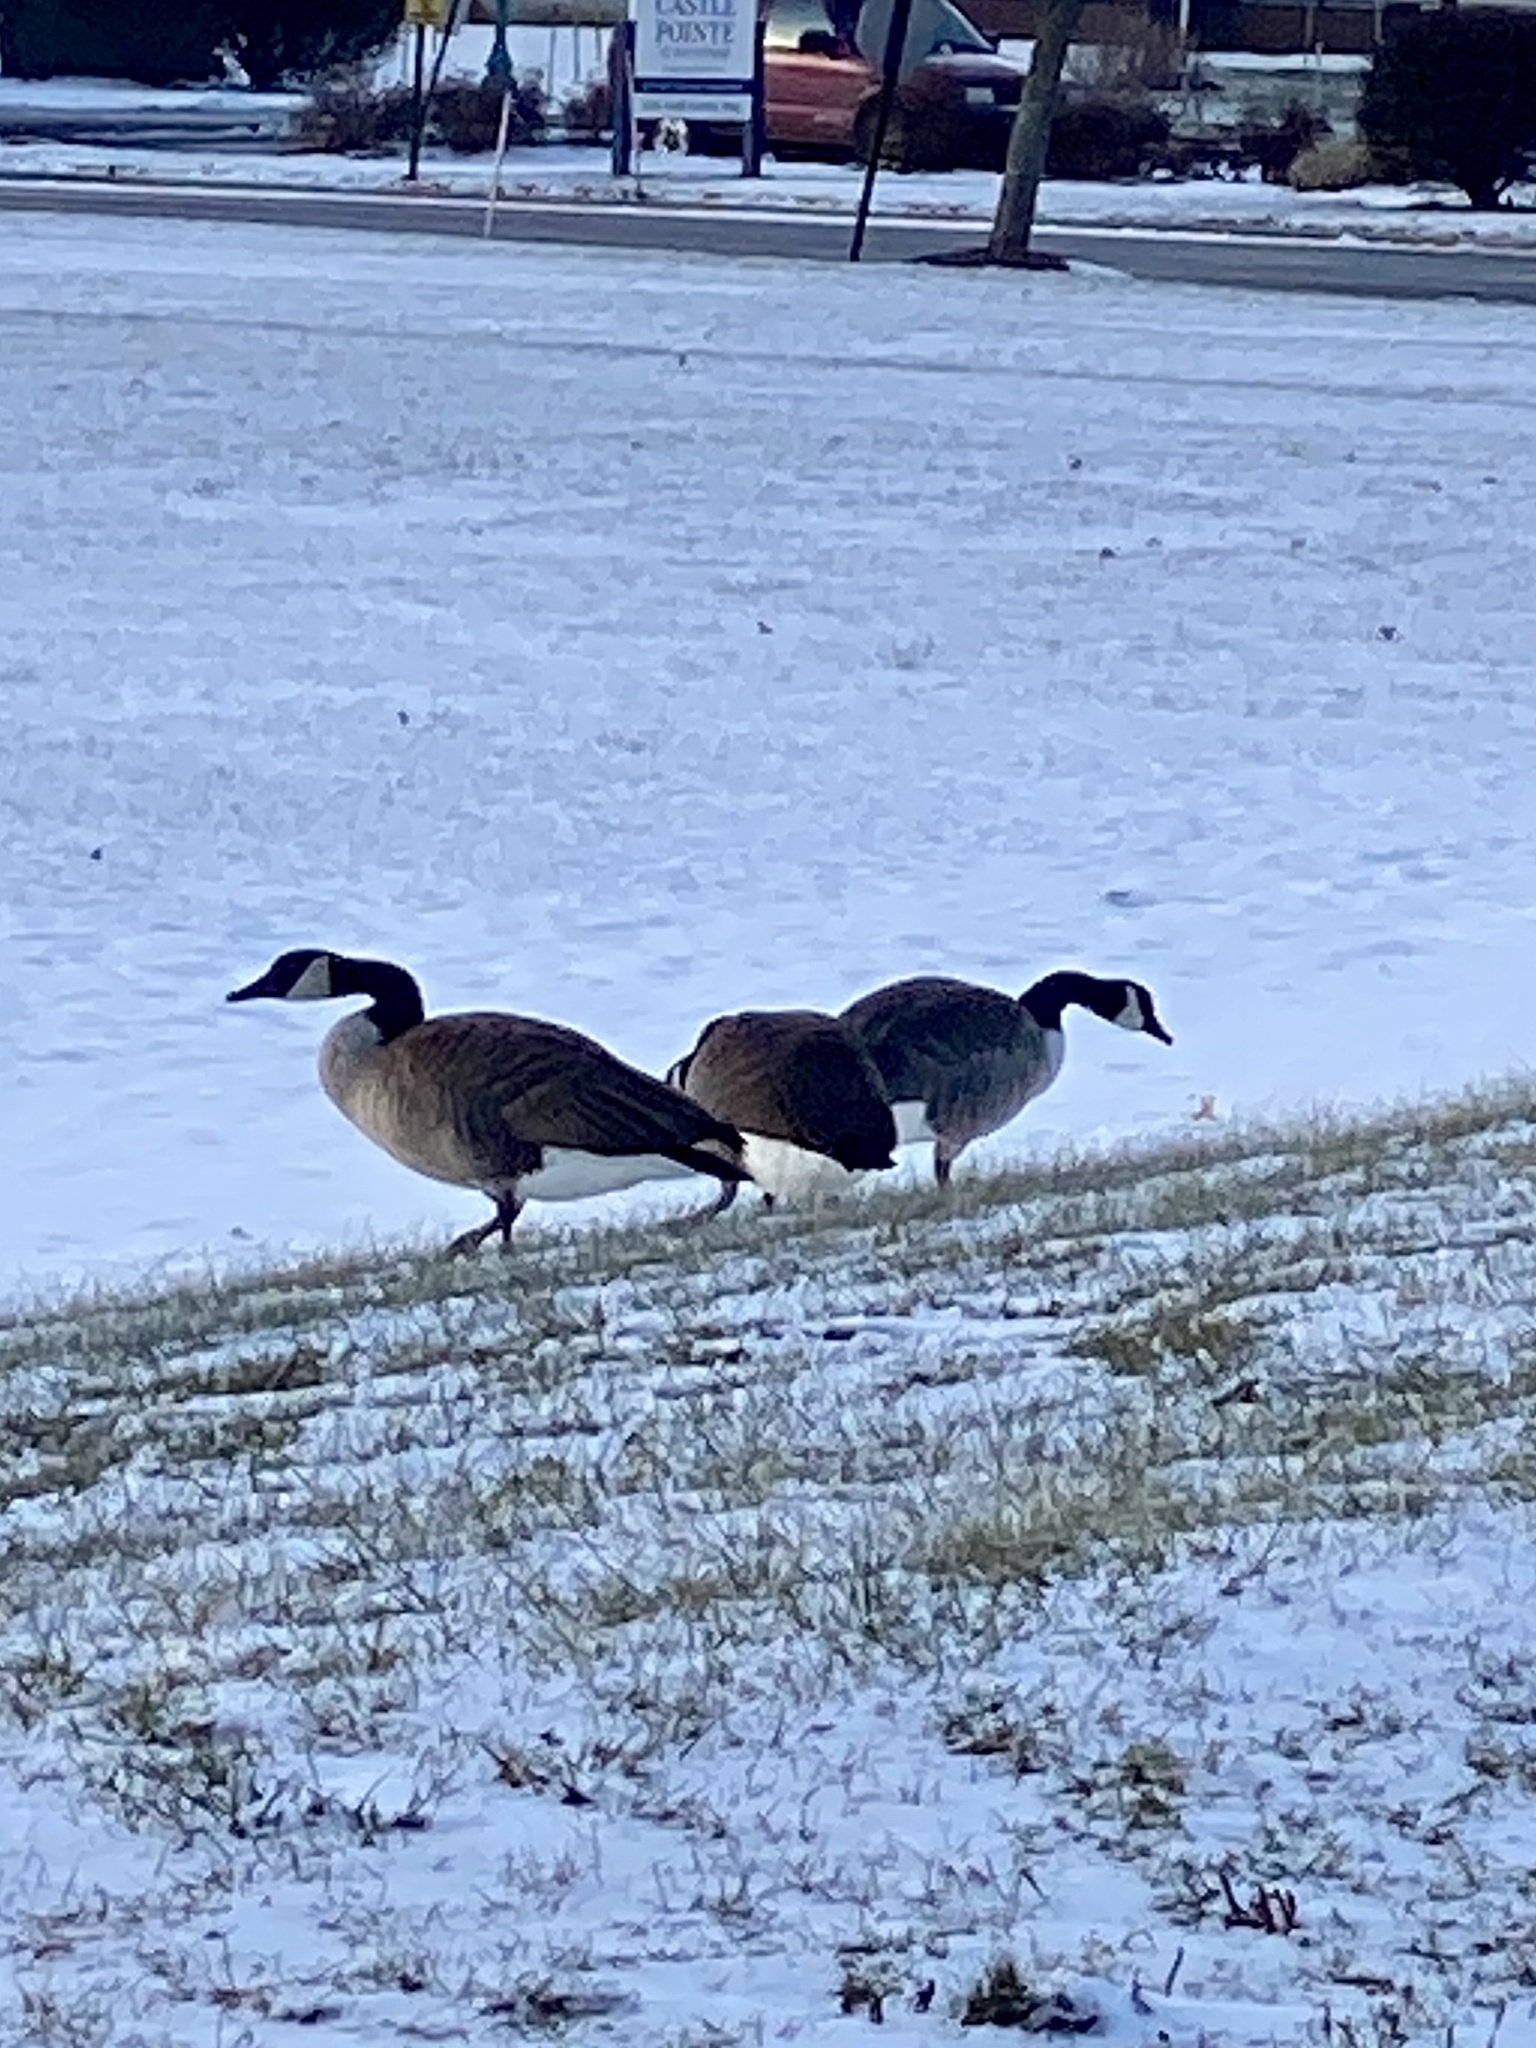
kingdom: Animalia
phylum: Chordata
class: Aves
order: Anseriformes
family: Anatidae
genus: Branta
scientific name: Branta canadensis
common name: Canada goose
